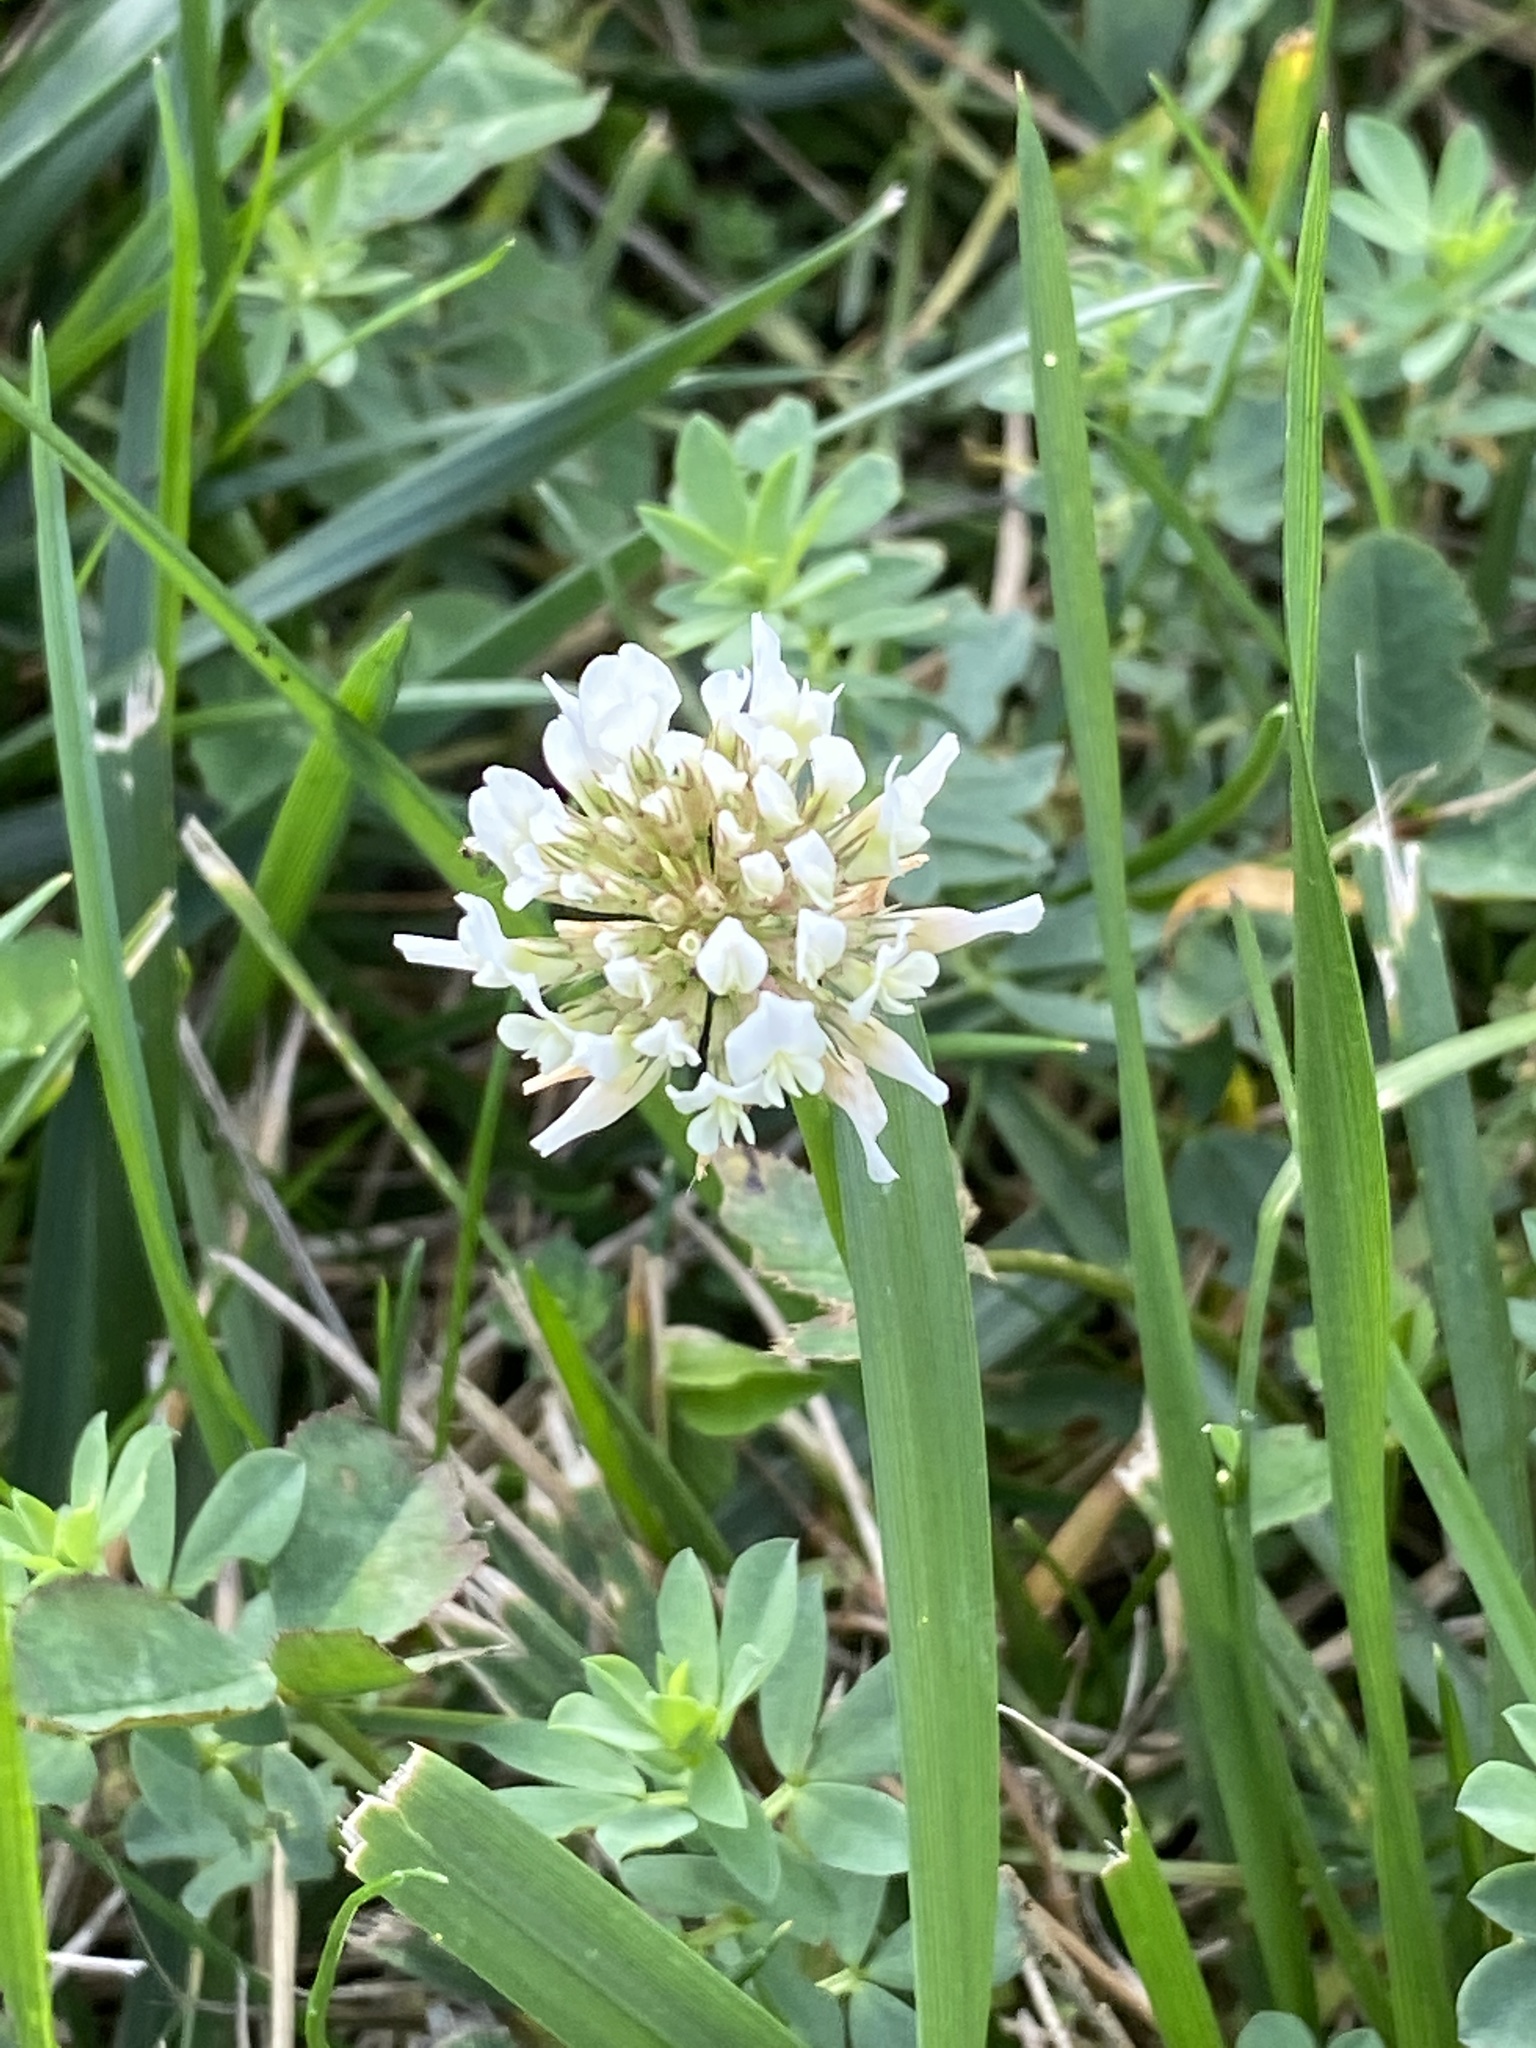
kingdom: Plantae
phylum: Tracheophyta
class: Magnoliopsida
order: Fabales
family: Fabaceae
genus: Trifolium
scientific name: Trifolium repens
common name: White clover
